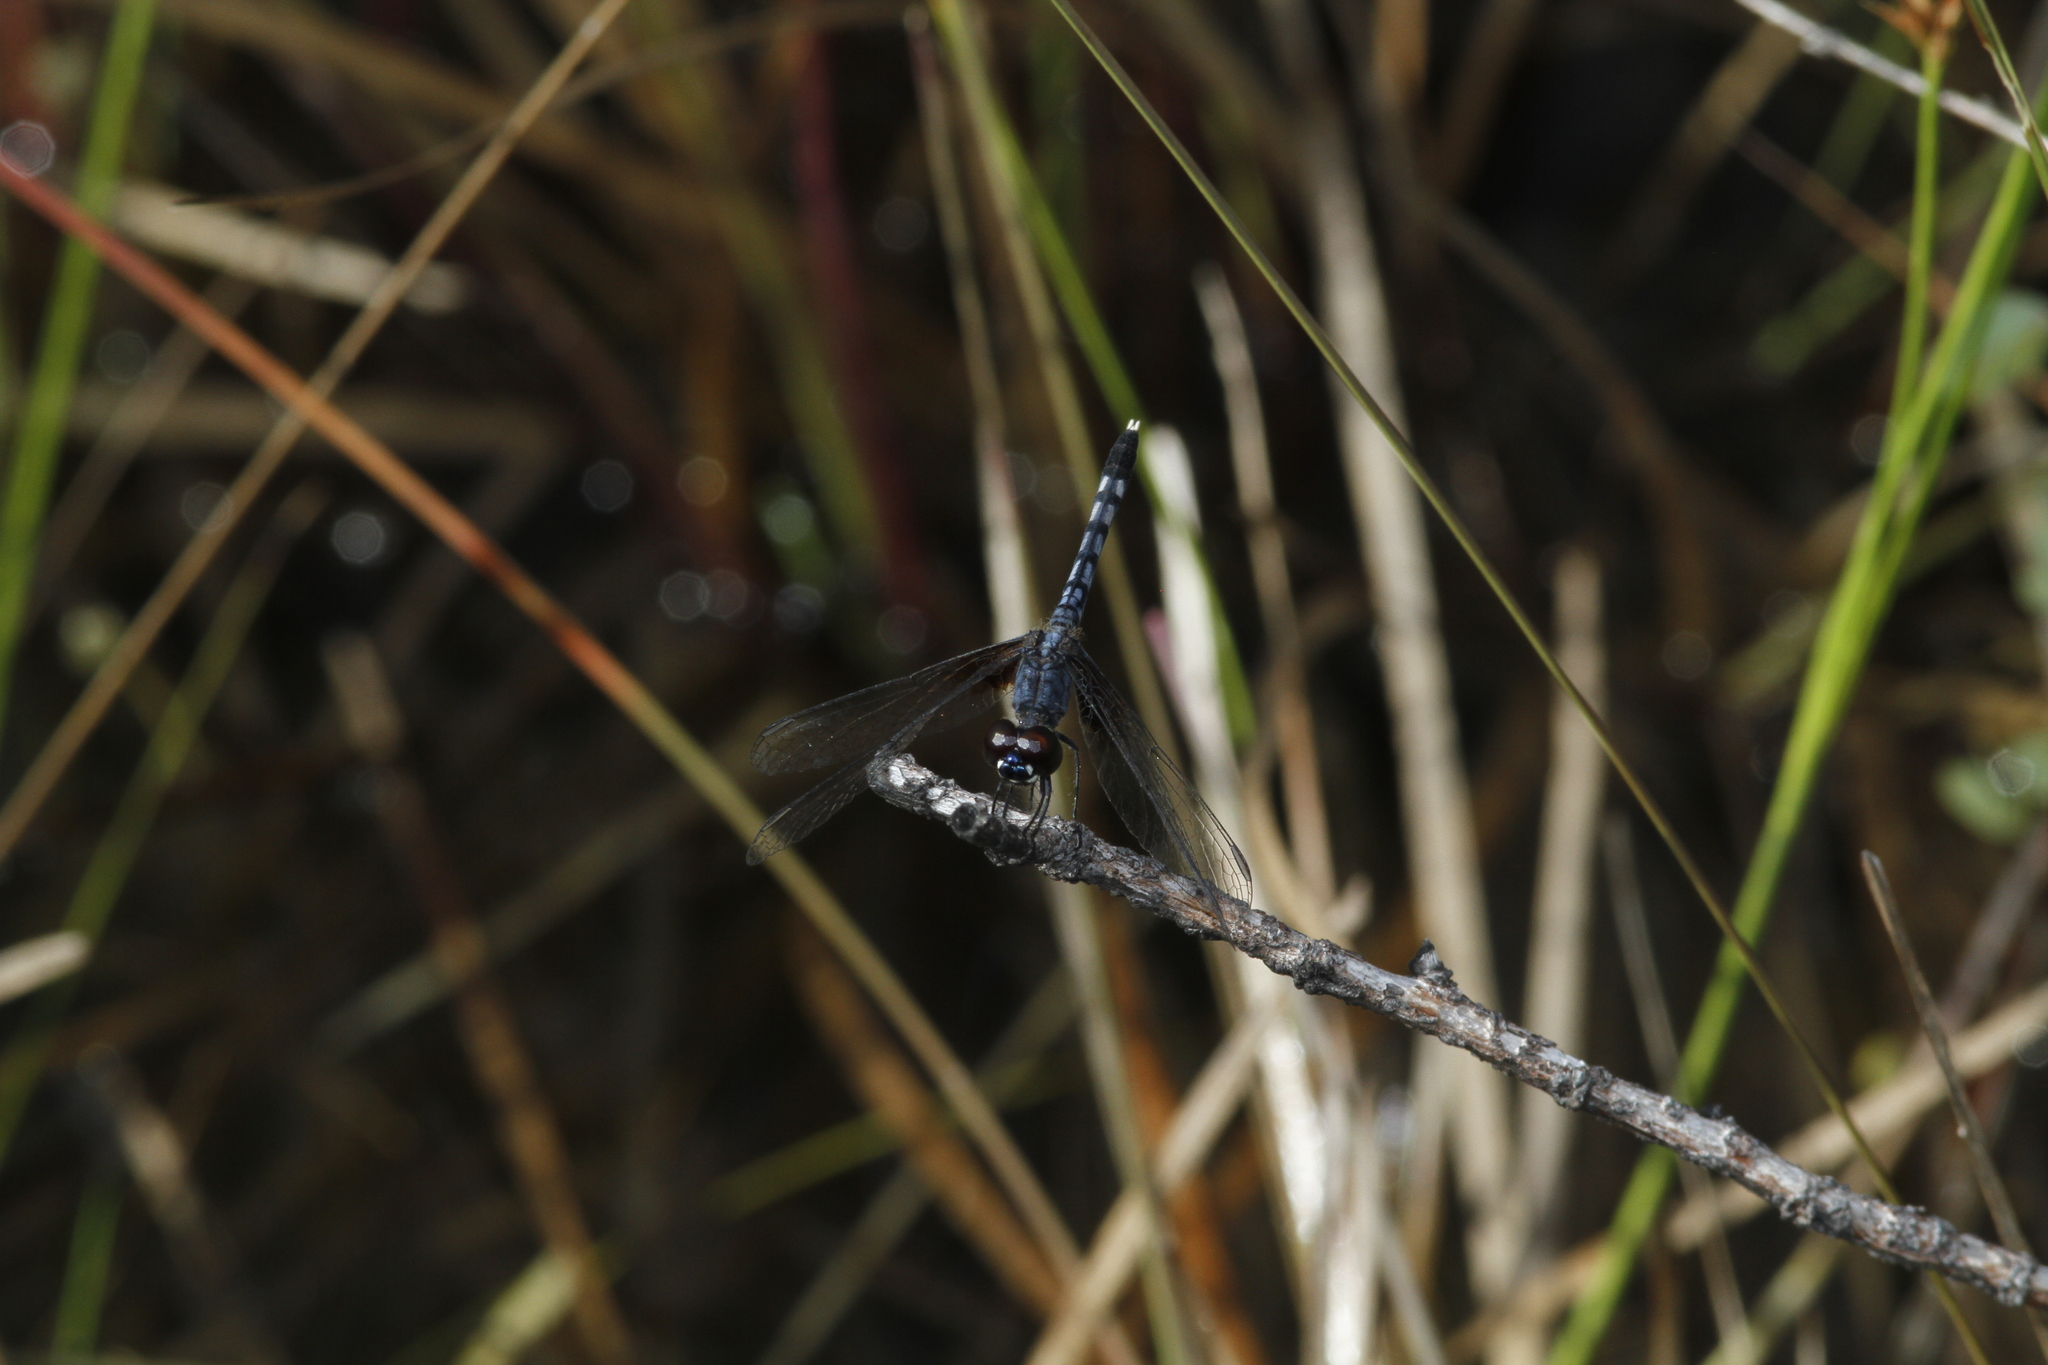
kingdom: Animalia
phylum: Arthropoda
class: Insecta
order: Odonata
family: Libellulidae
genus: Erythrodiplax
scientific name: Erythrodiplax maculosa
